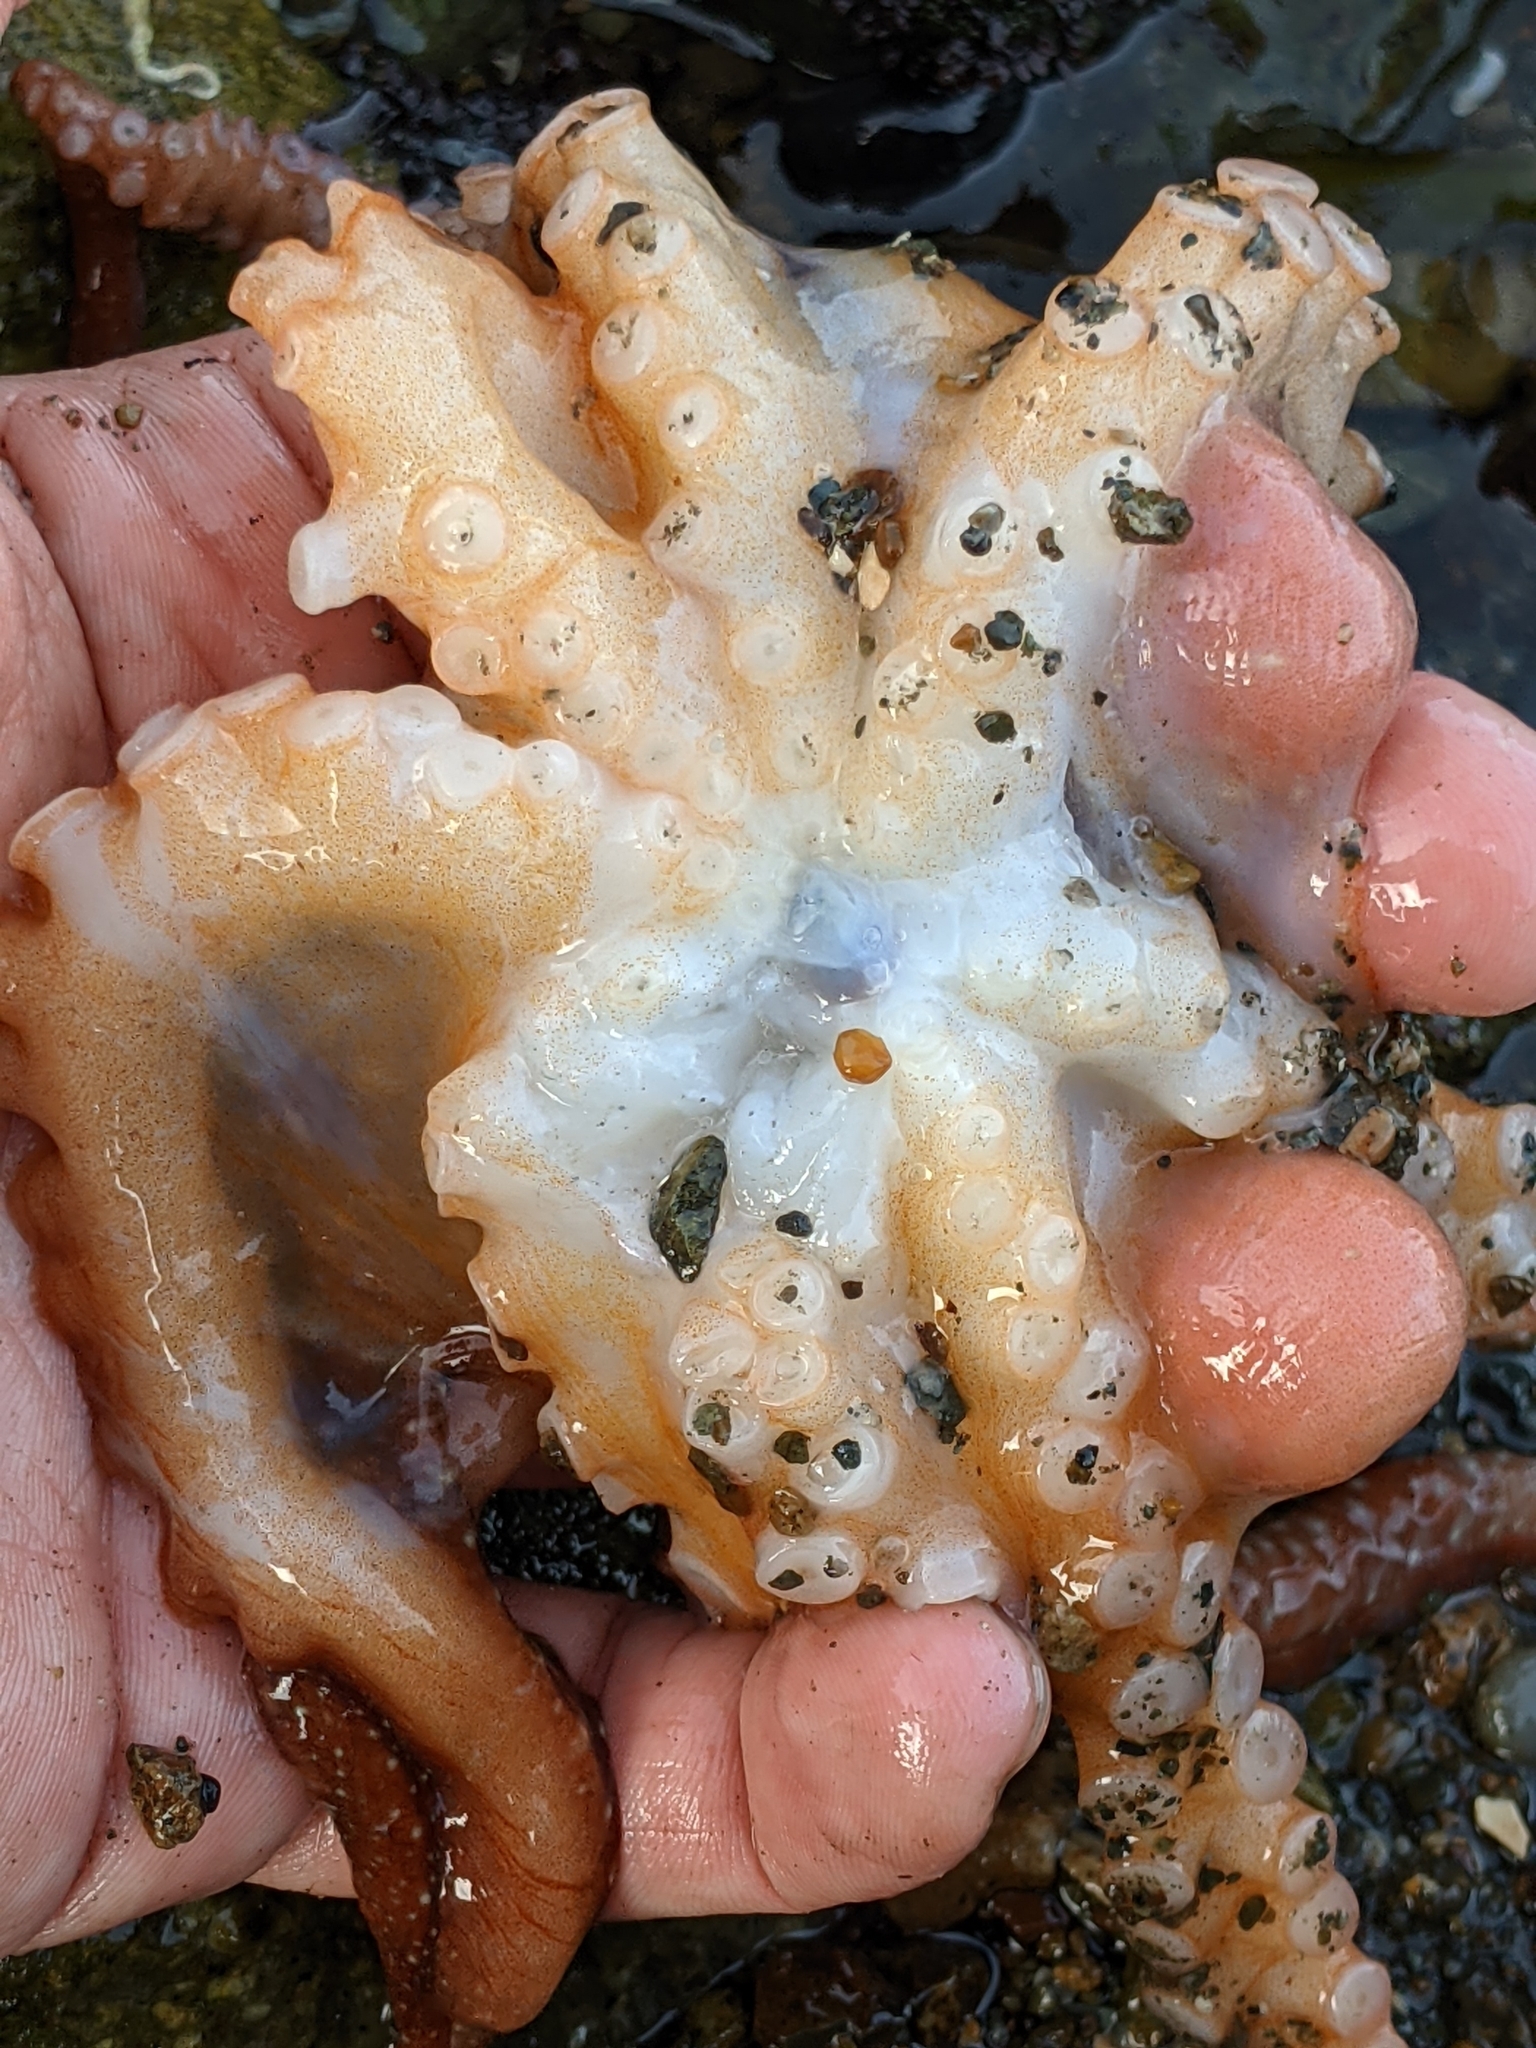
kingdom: Animalia
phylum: Mollusca
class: Cephalopoda
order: Octopoda
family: Octopodidae
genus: Octopus
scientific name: Octopus rubescens
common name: East pacific red octopus
